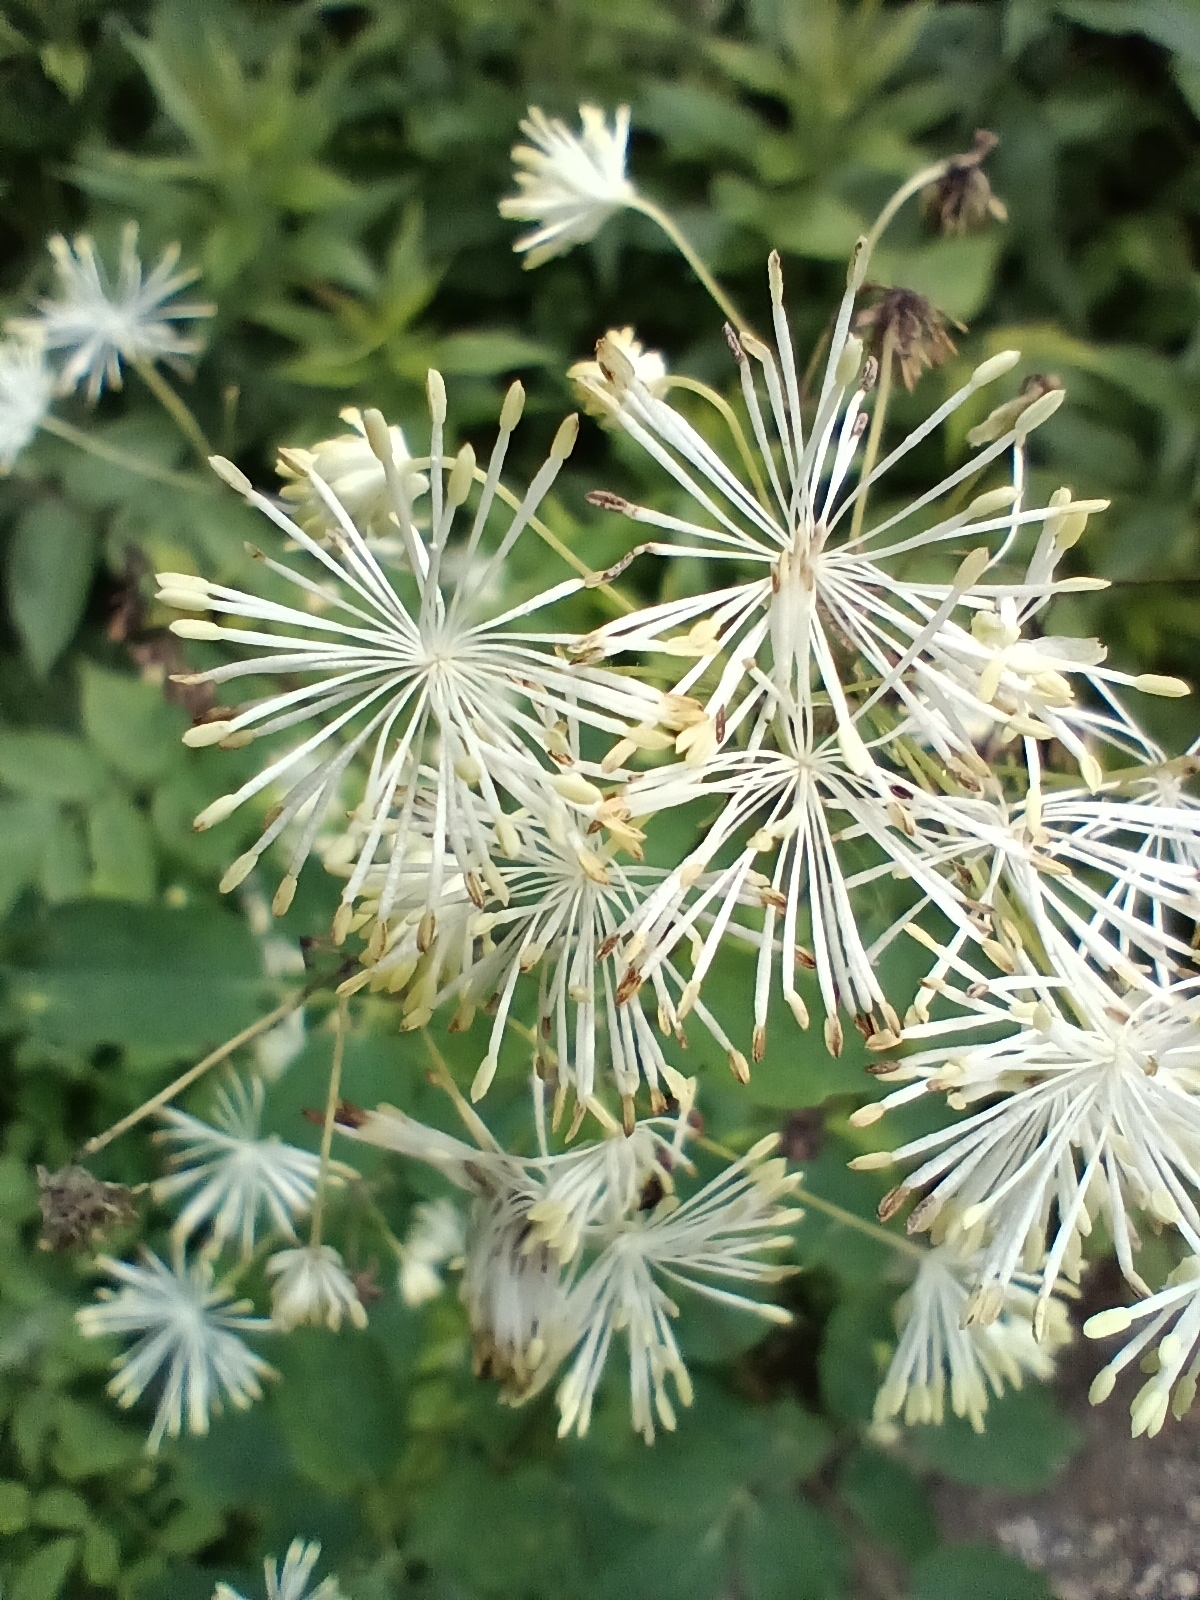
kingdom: Plantae
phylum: Tracheophyta
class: Magnoliopsida
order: Ranunculales
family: Ranunculaceae
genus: Thalictrum
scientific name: Thalictrum pubescens
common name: King-of-the-meadow
